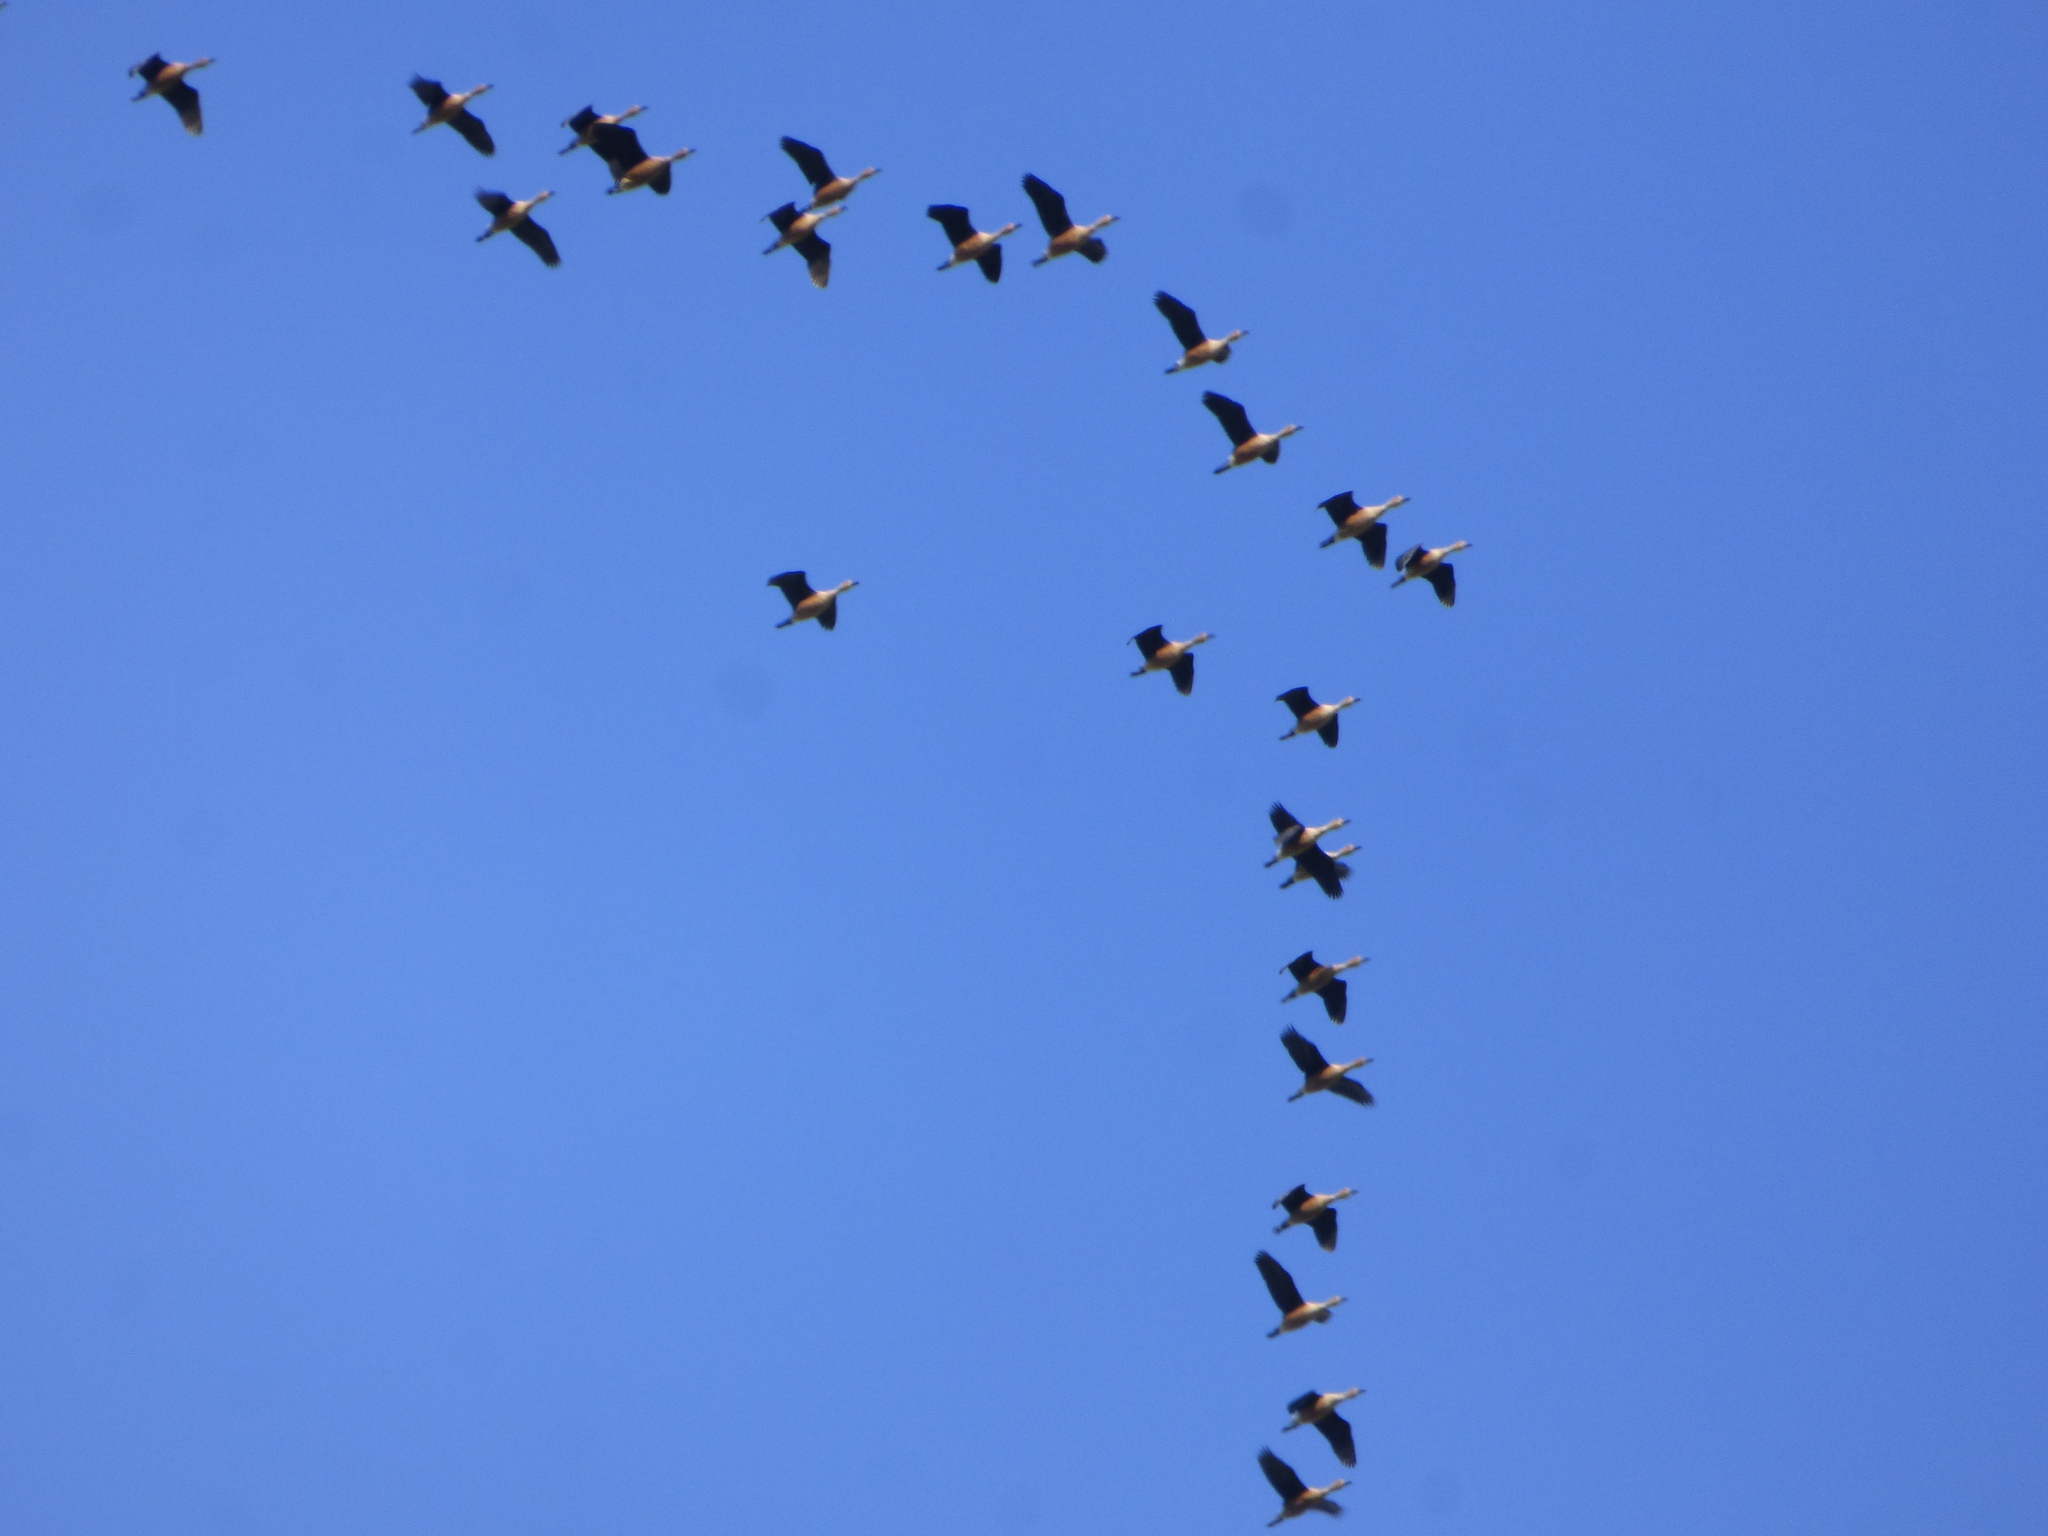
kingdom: Animalia
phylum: Chordata
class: Aves
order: Anseriformes
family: Anatidae
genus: Dendrocygna
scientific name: Dendrocygna bicolor
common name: Fulvous whistling duck
